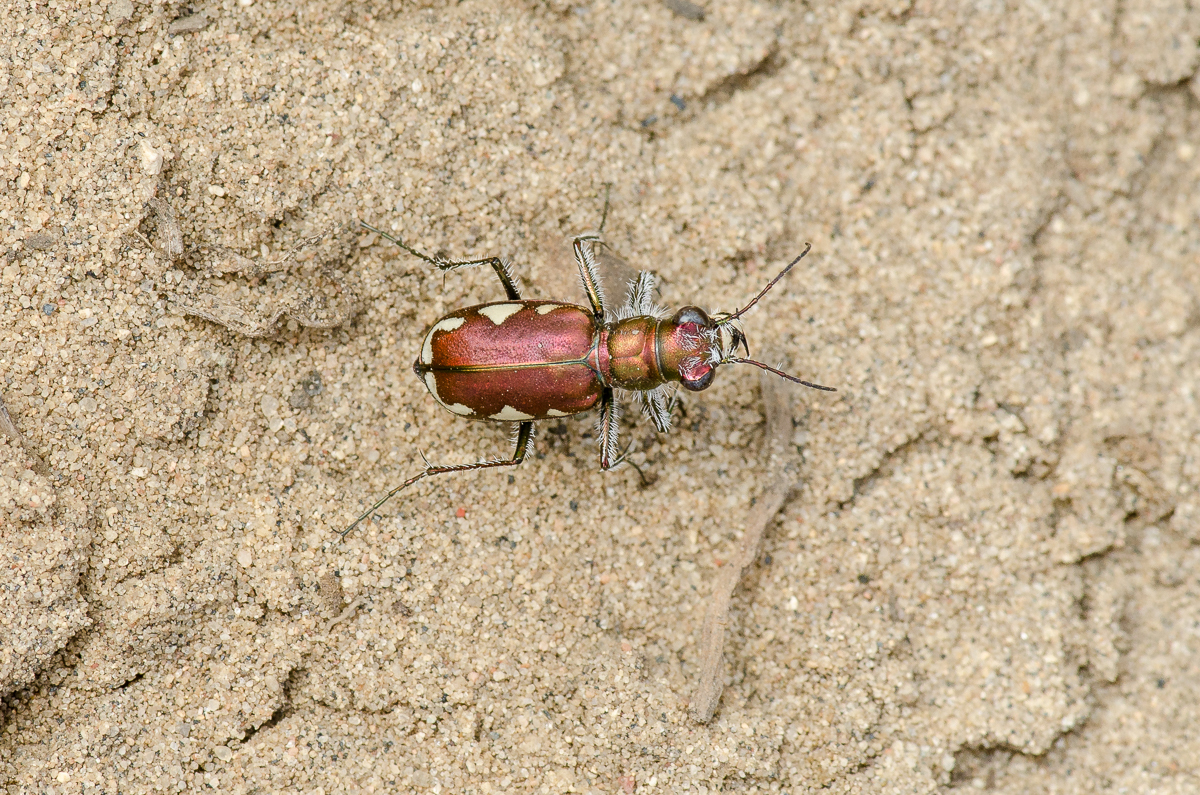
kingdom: Animalia
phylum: Arthropoda
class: Insecta
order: Coleoptera
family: Carabidae
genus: Cicindela
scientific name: Cicindela scutellaris
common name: Festive tiger beetle
